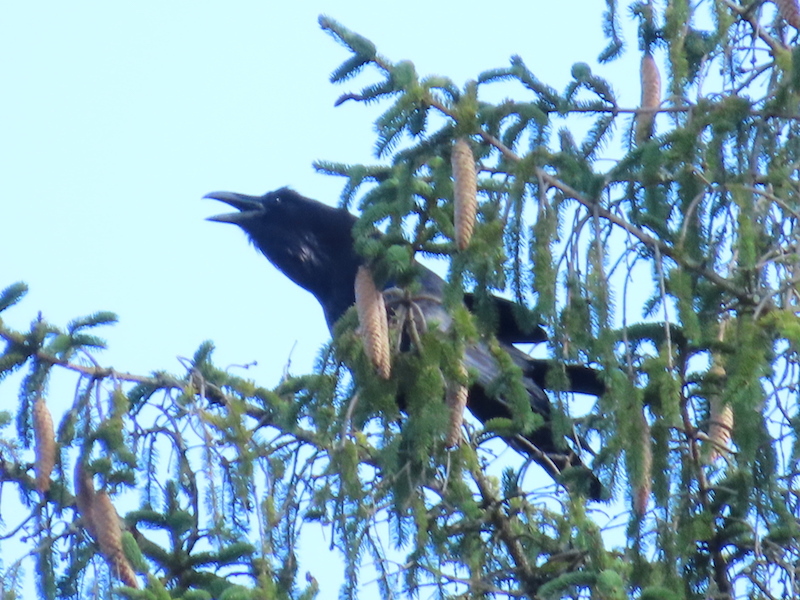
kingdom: Animalia
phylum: Chordata
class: Aves
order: Passeriformes
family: Corvidae
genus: Corvus
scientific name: Corvus corax
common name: Common raven
